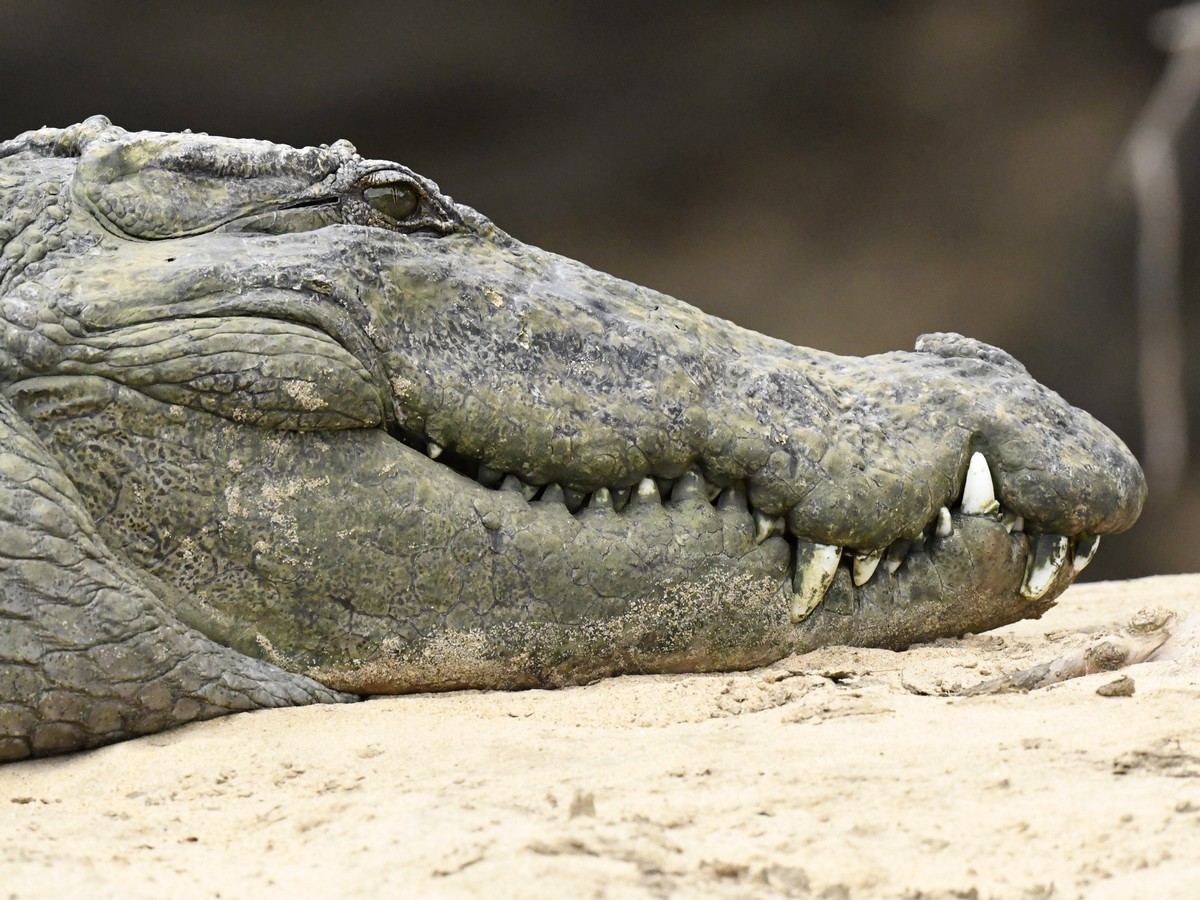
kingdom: Animalia
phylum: Chordata
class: Crocodylia
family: Crocodylidae
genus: Crocodylus
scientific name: Crocodylus palustris
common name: Mugger crocodile
